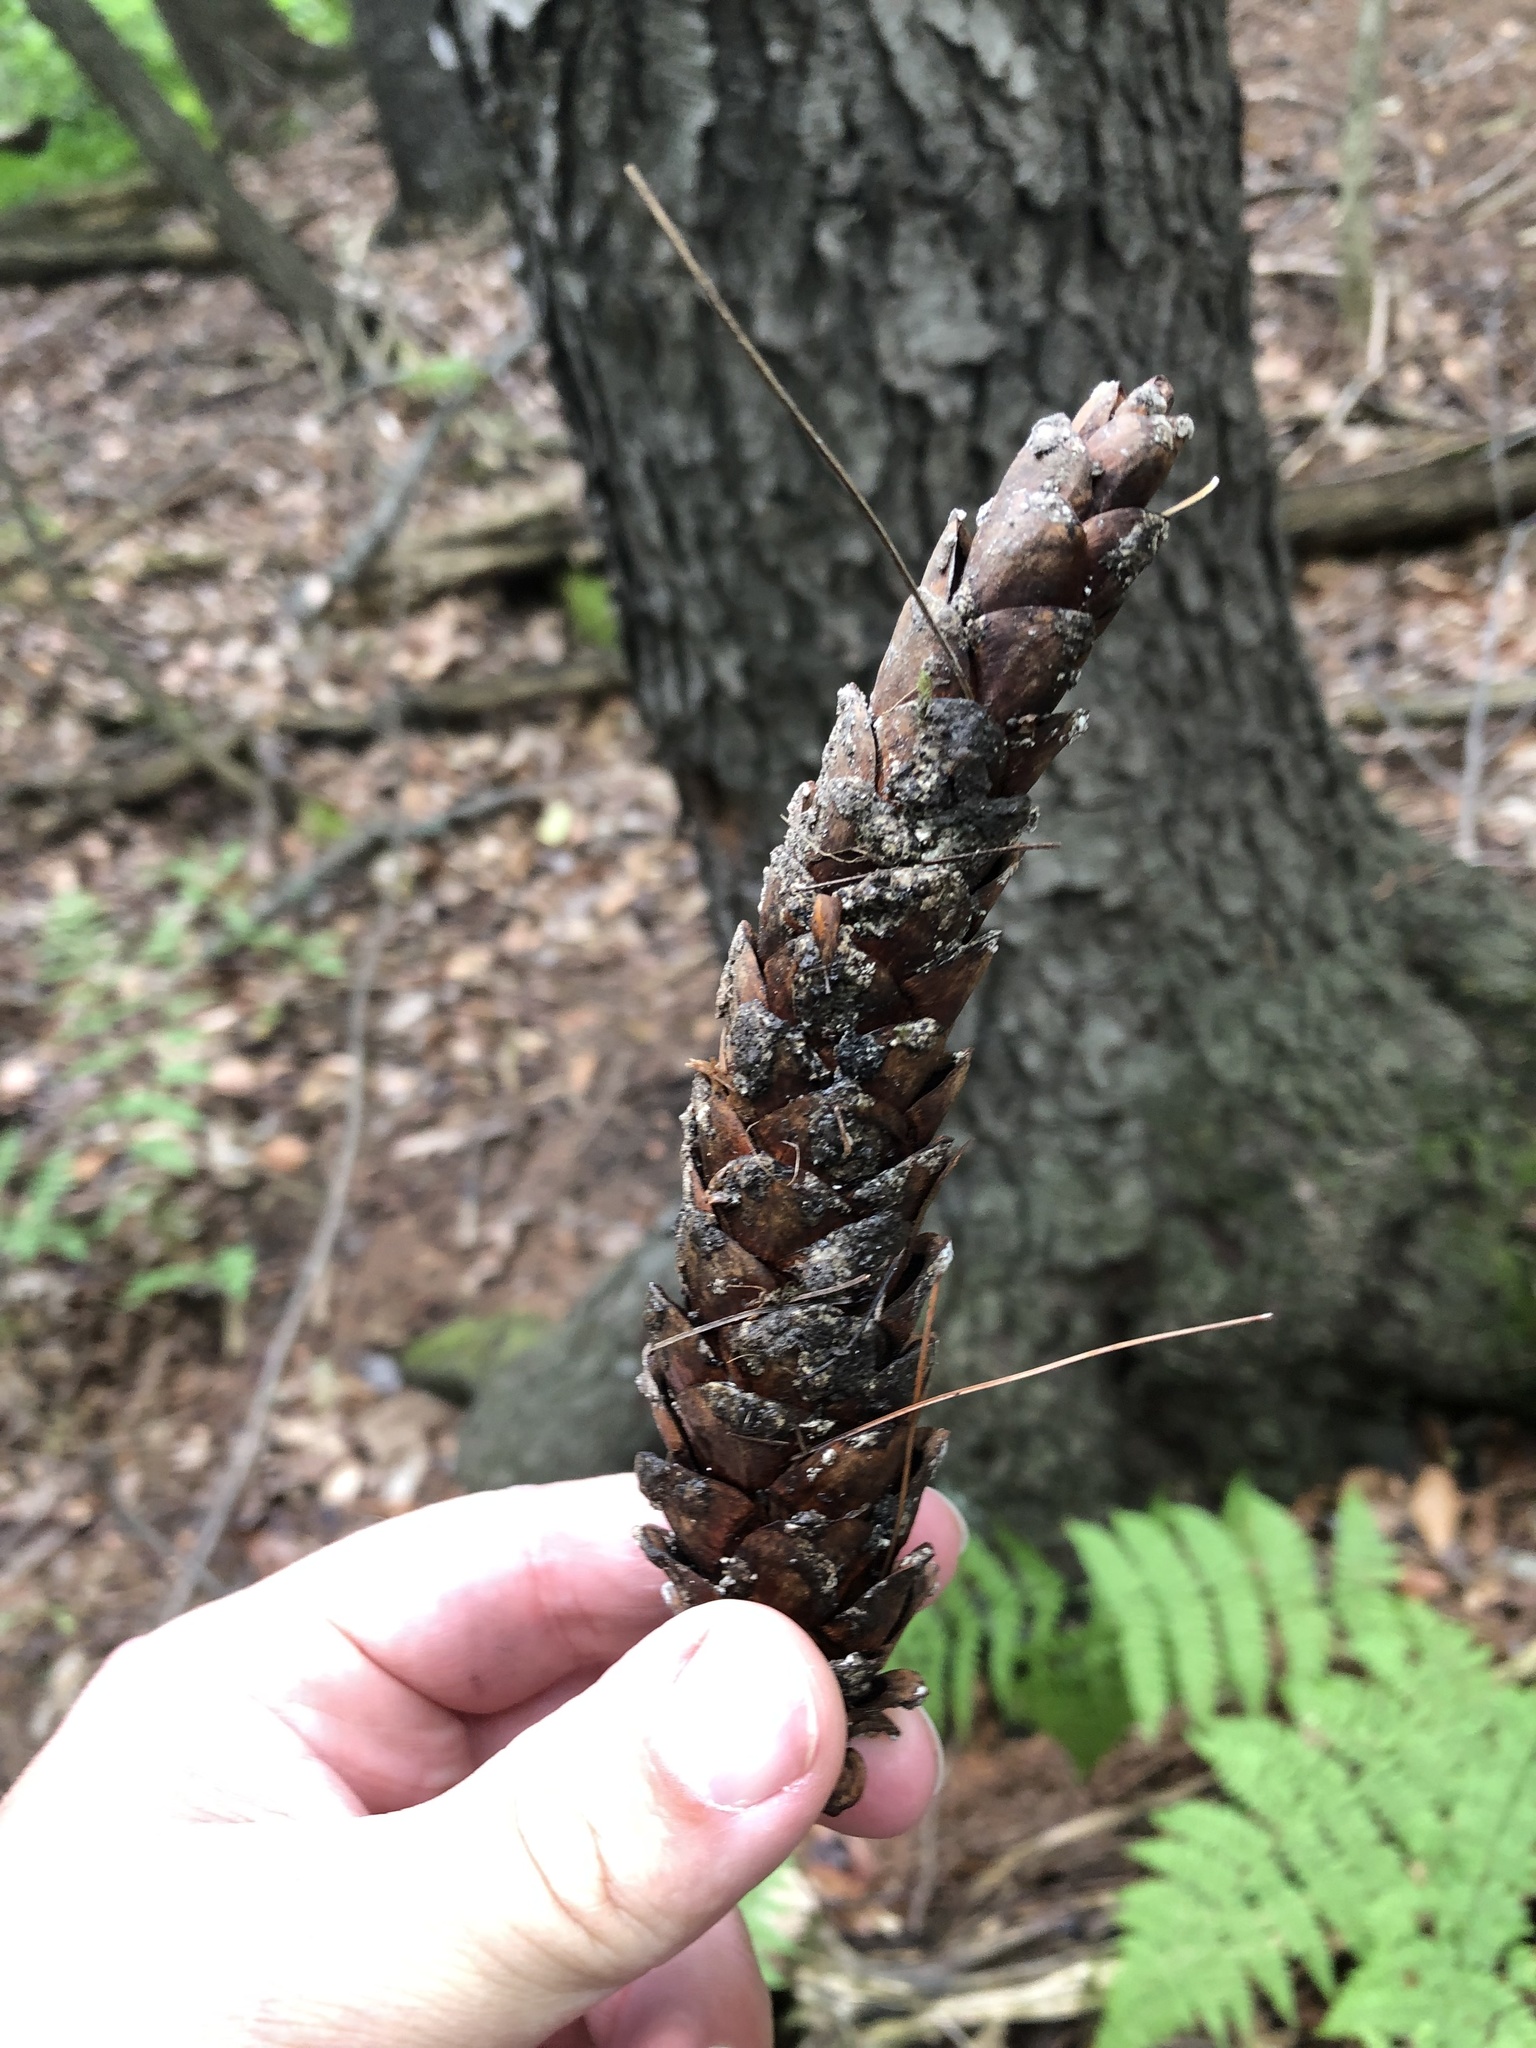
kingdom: Plantae
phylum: Tracheophyta
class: Pinopsida
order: Pinales
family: Pinaceae
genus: Pinus
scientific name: Pinus strobus
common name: Weymouth pine
